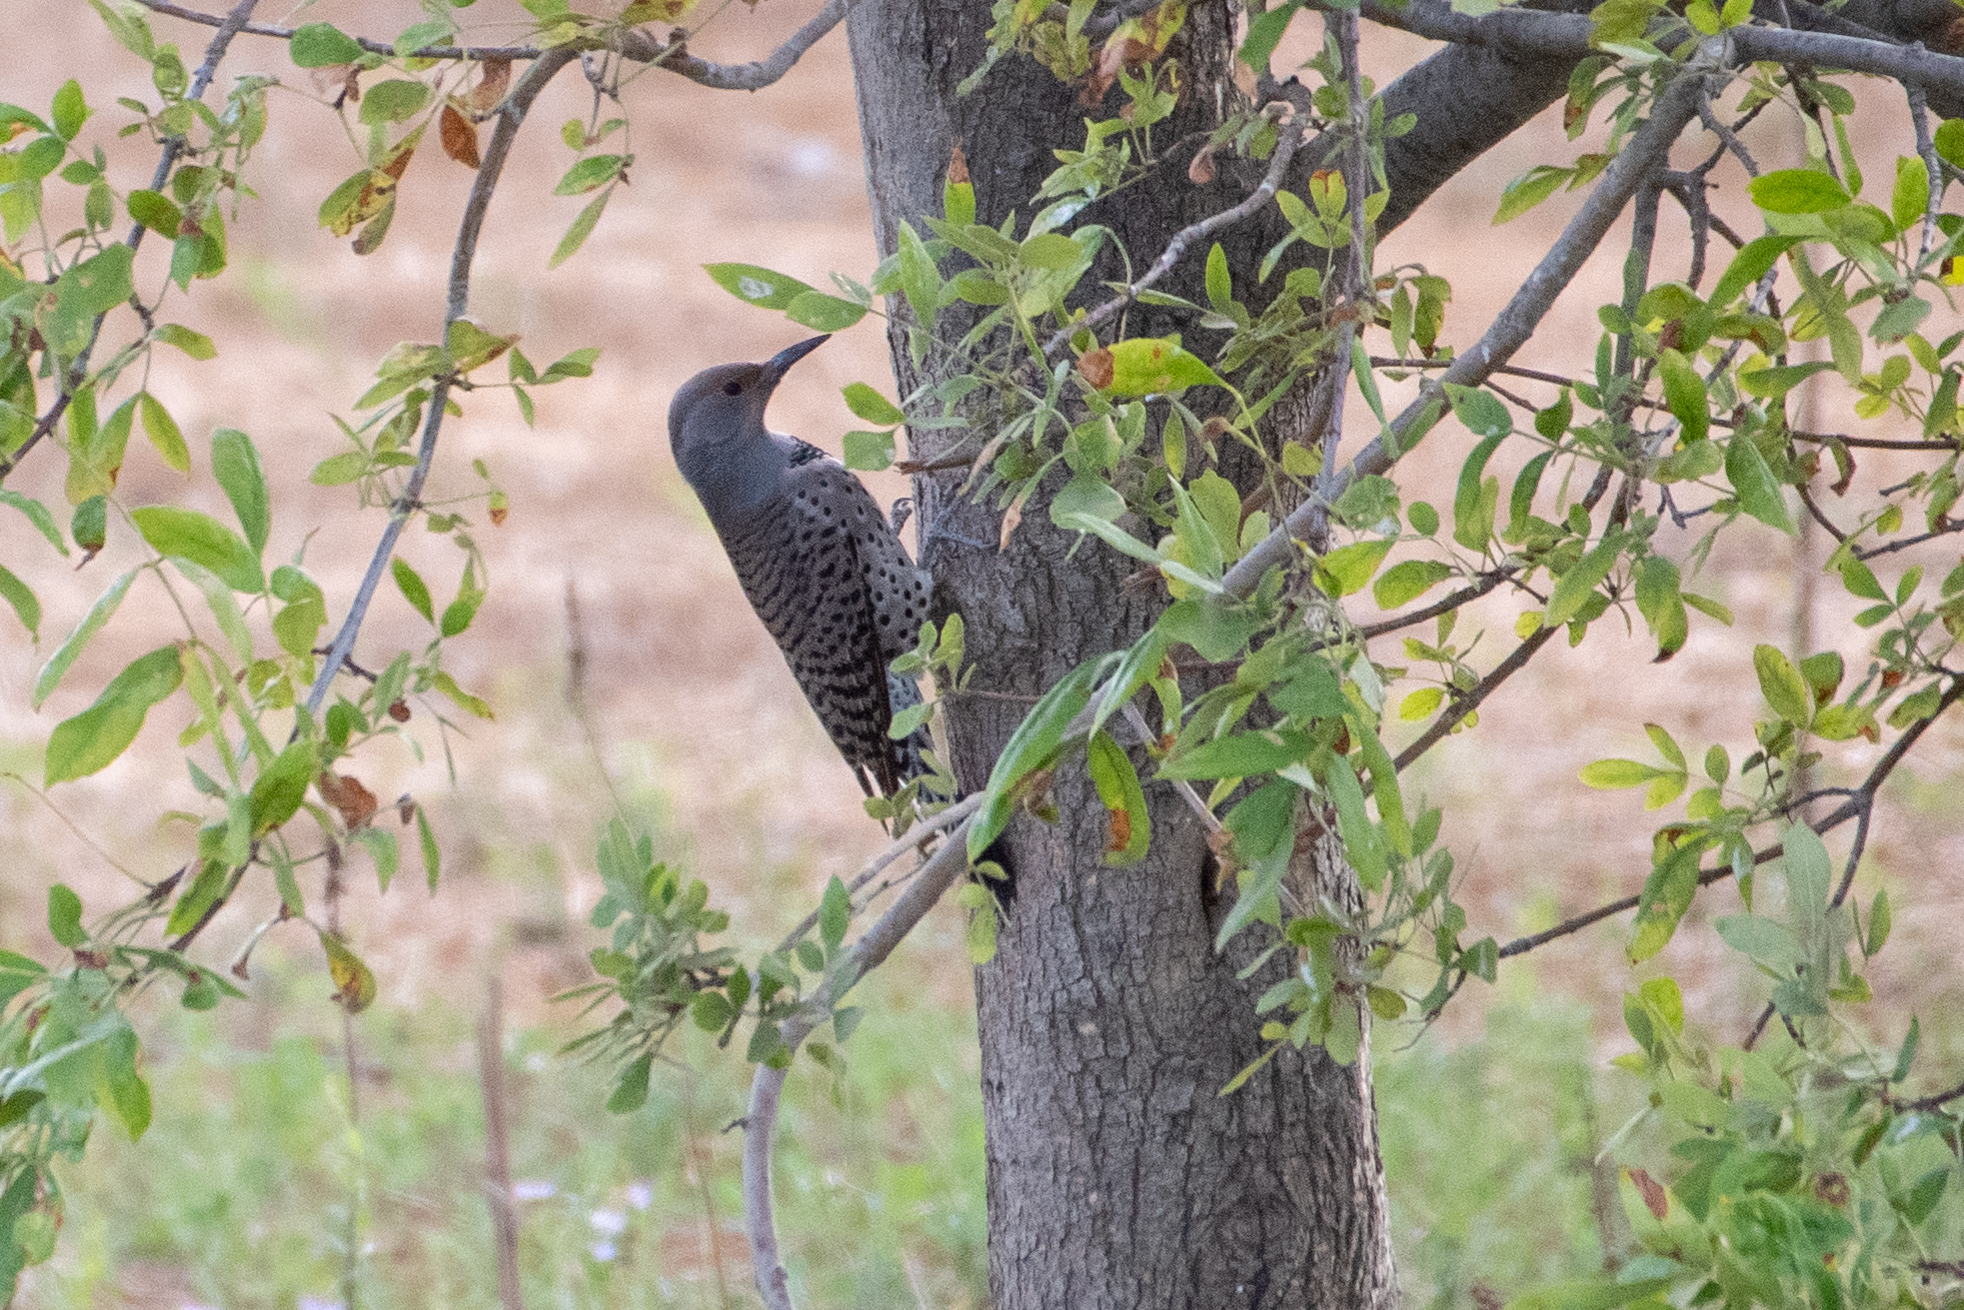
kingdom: Animalia
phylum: Chordata
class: Aves
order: Piciformes
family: Picidae
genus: Colaptes
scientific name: Colaptes auratus
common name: Northern flicker
